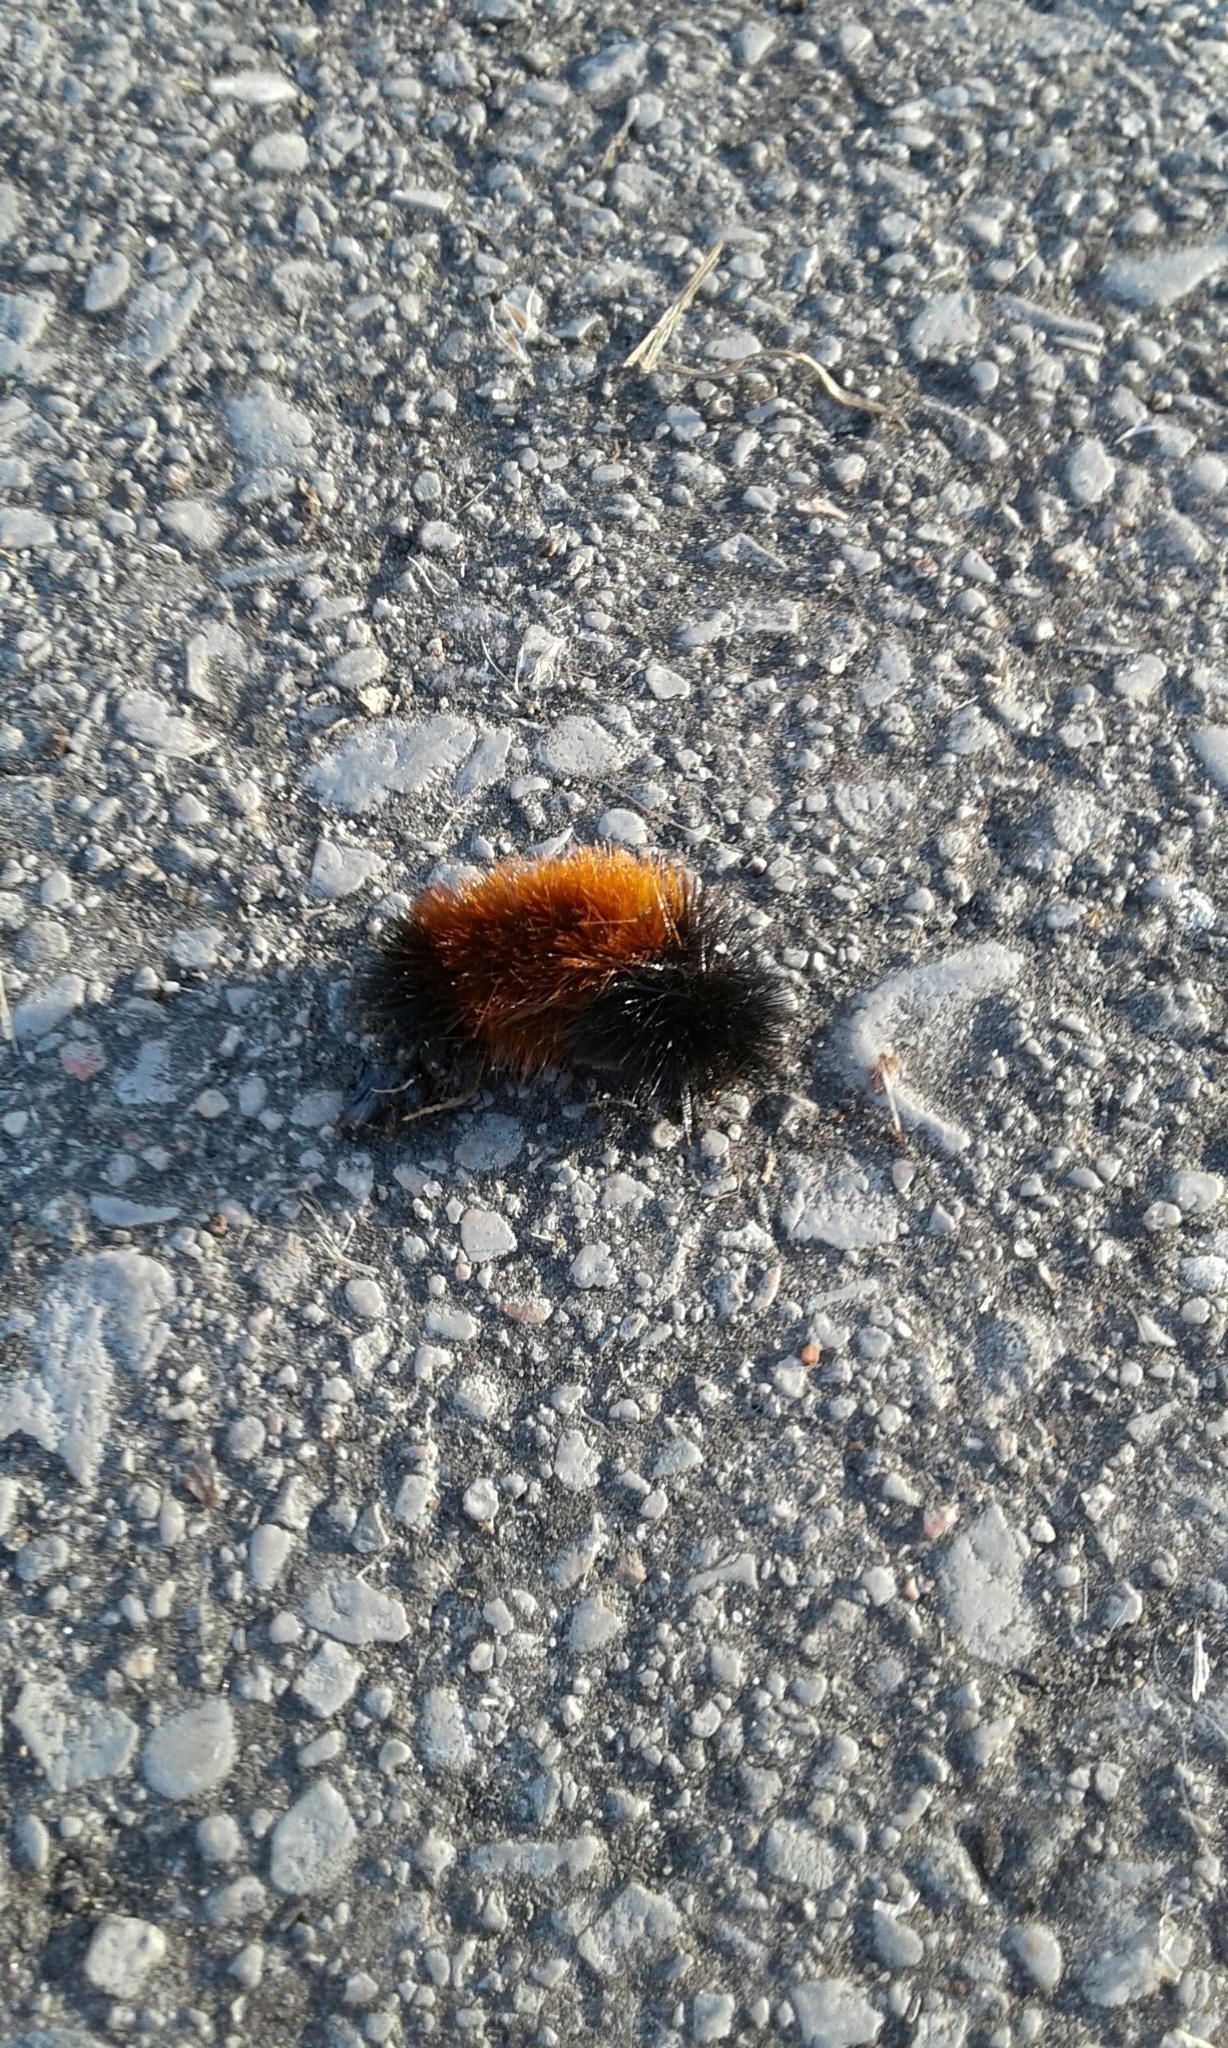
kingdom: Animalia
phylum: Arthropoda
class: Insecta
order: Lepidoptera
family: Erebidae
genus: Pyrrharctia
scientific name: Pyrrharctia isabella
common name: Isabella tiger moth
